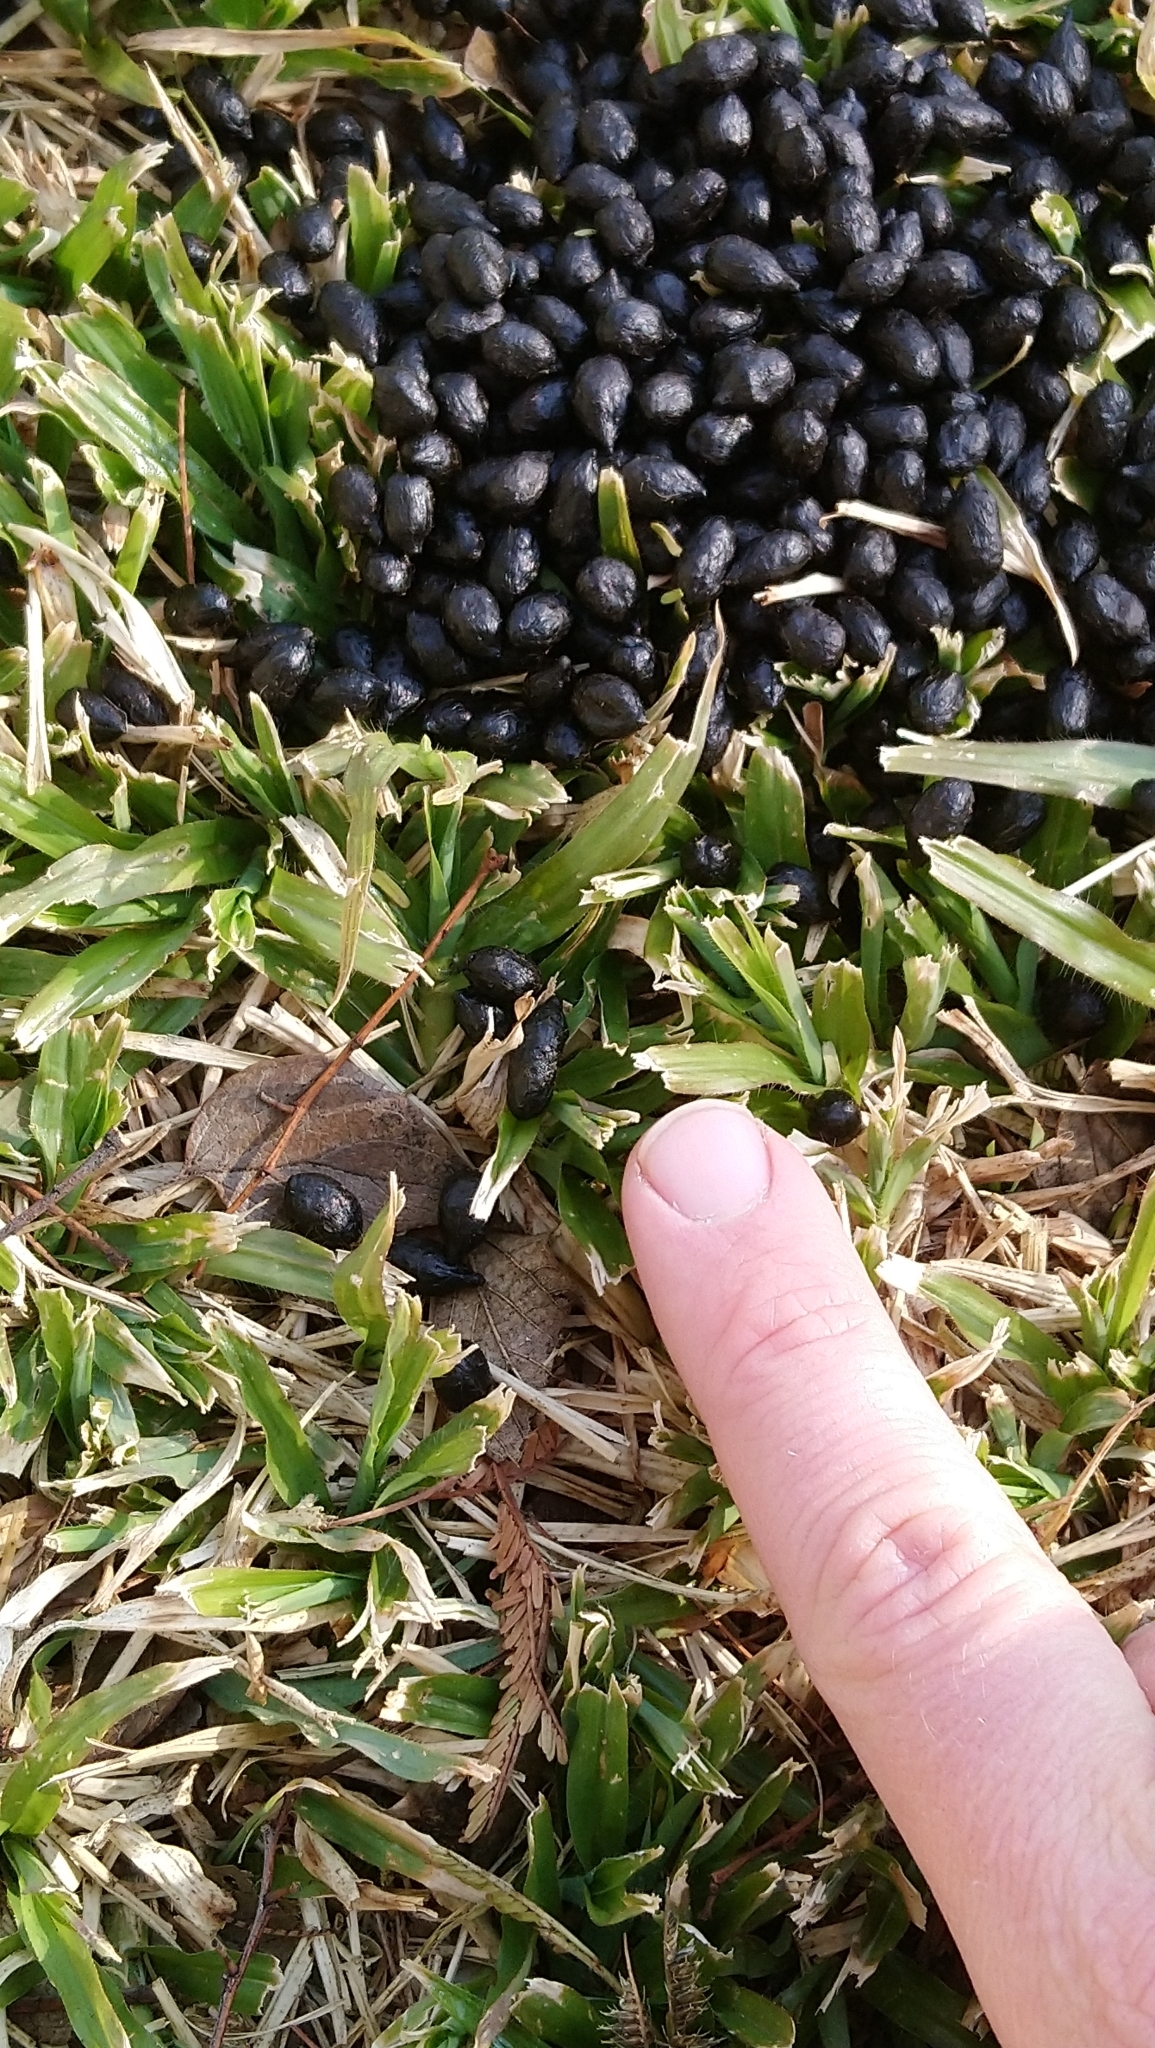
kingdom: Animalia
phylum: Chordata
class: Mammalia
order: Artiodactyla
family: Bovidae
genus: Sylvicapra
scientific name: Sylvicapra grimmia
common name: Bush duiker
